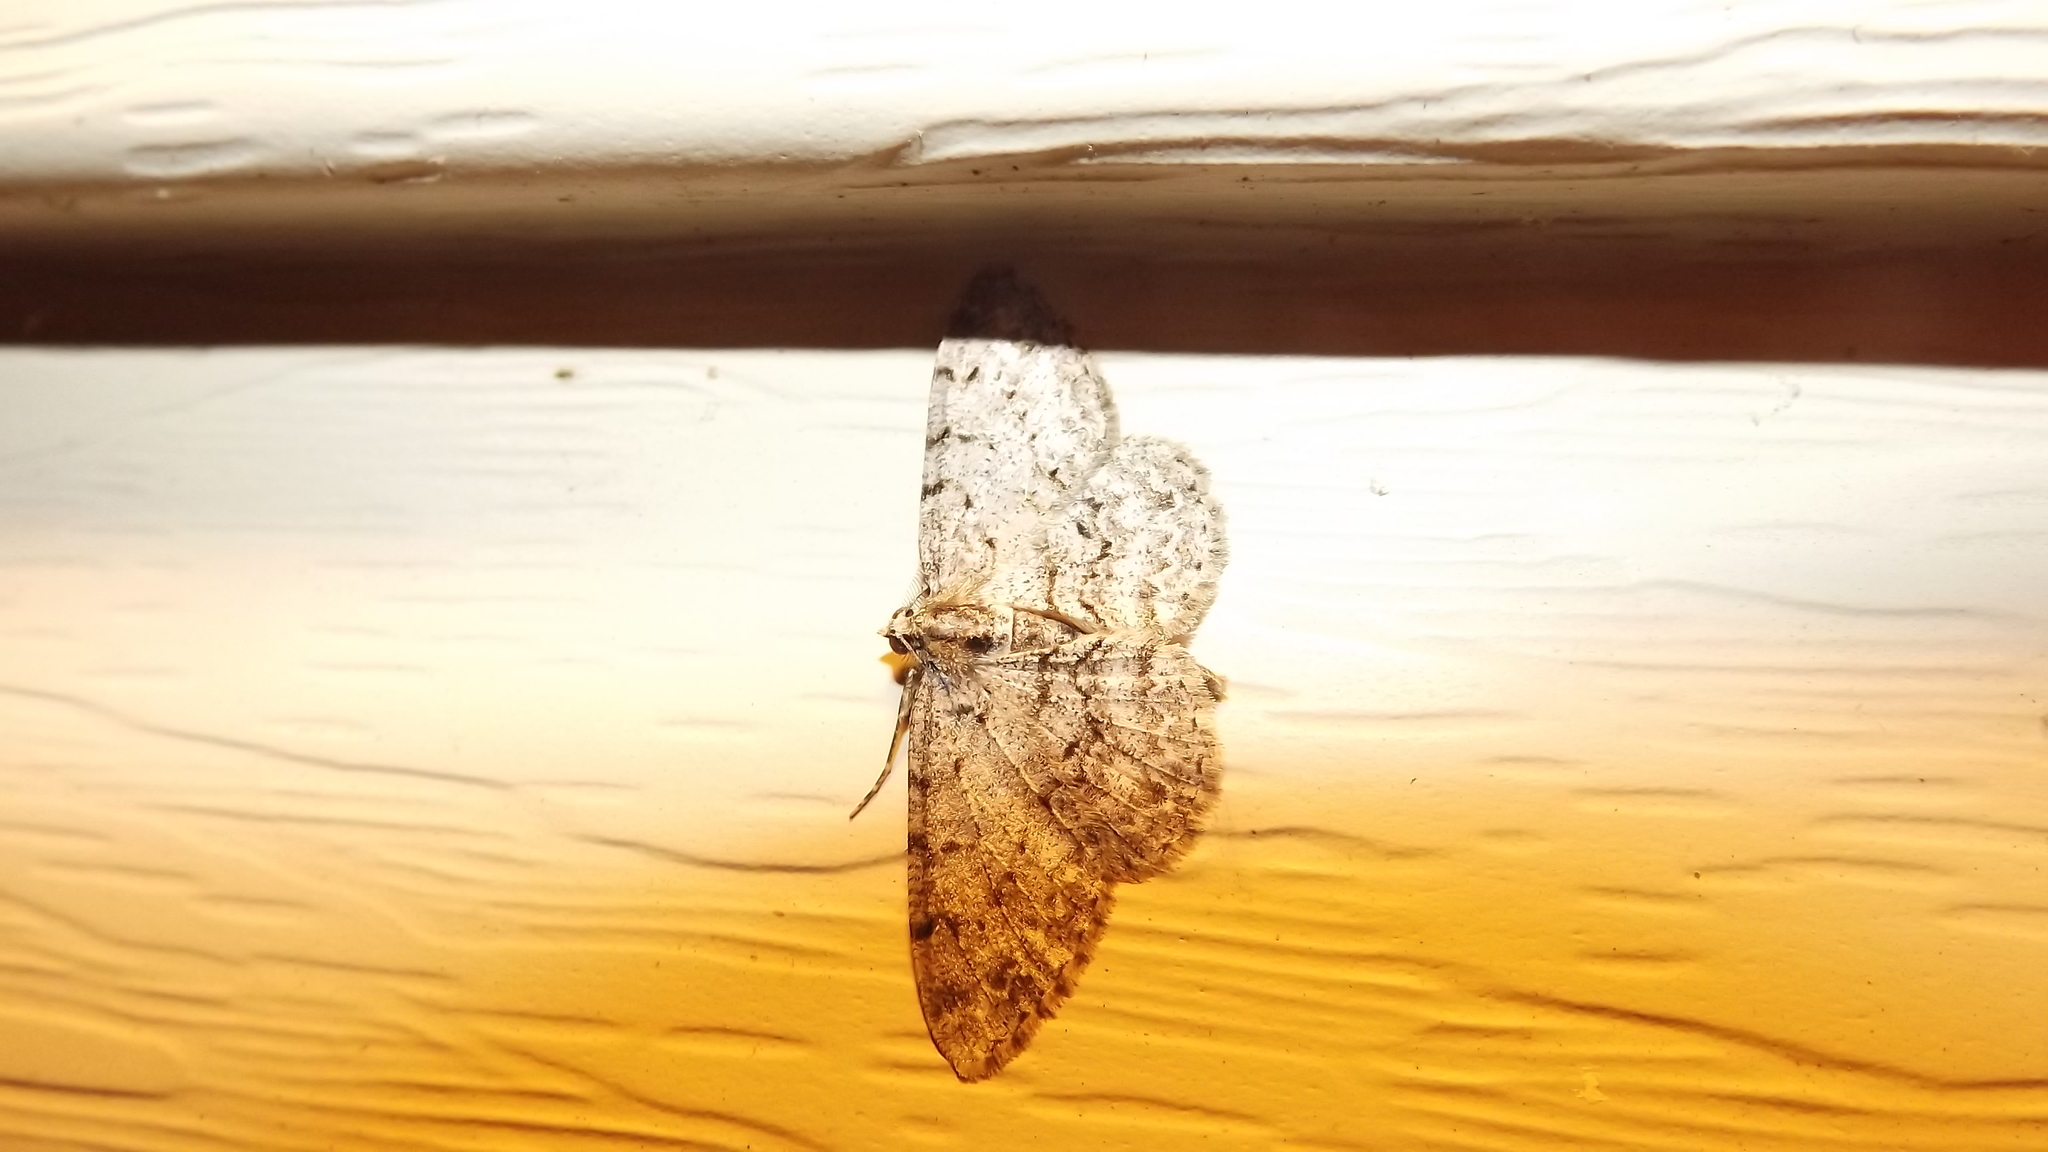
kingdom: Animalia
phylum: Arthropoda
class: Insecta
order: Lepidoptera
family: Geometridae
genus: Protoboarmia
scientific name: Protoboarmia porcelaria
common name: Porcelain gray
